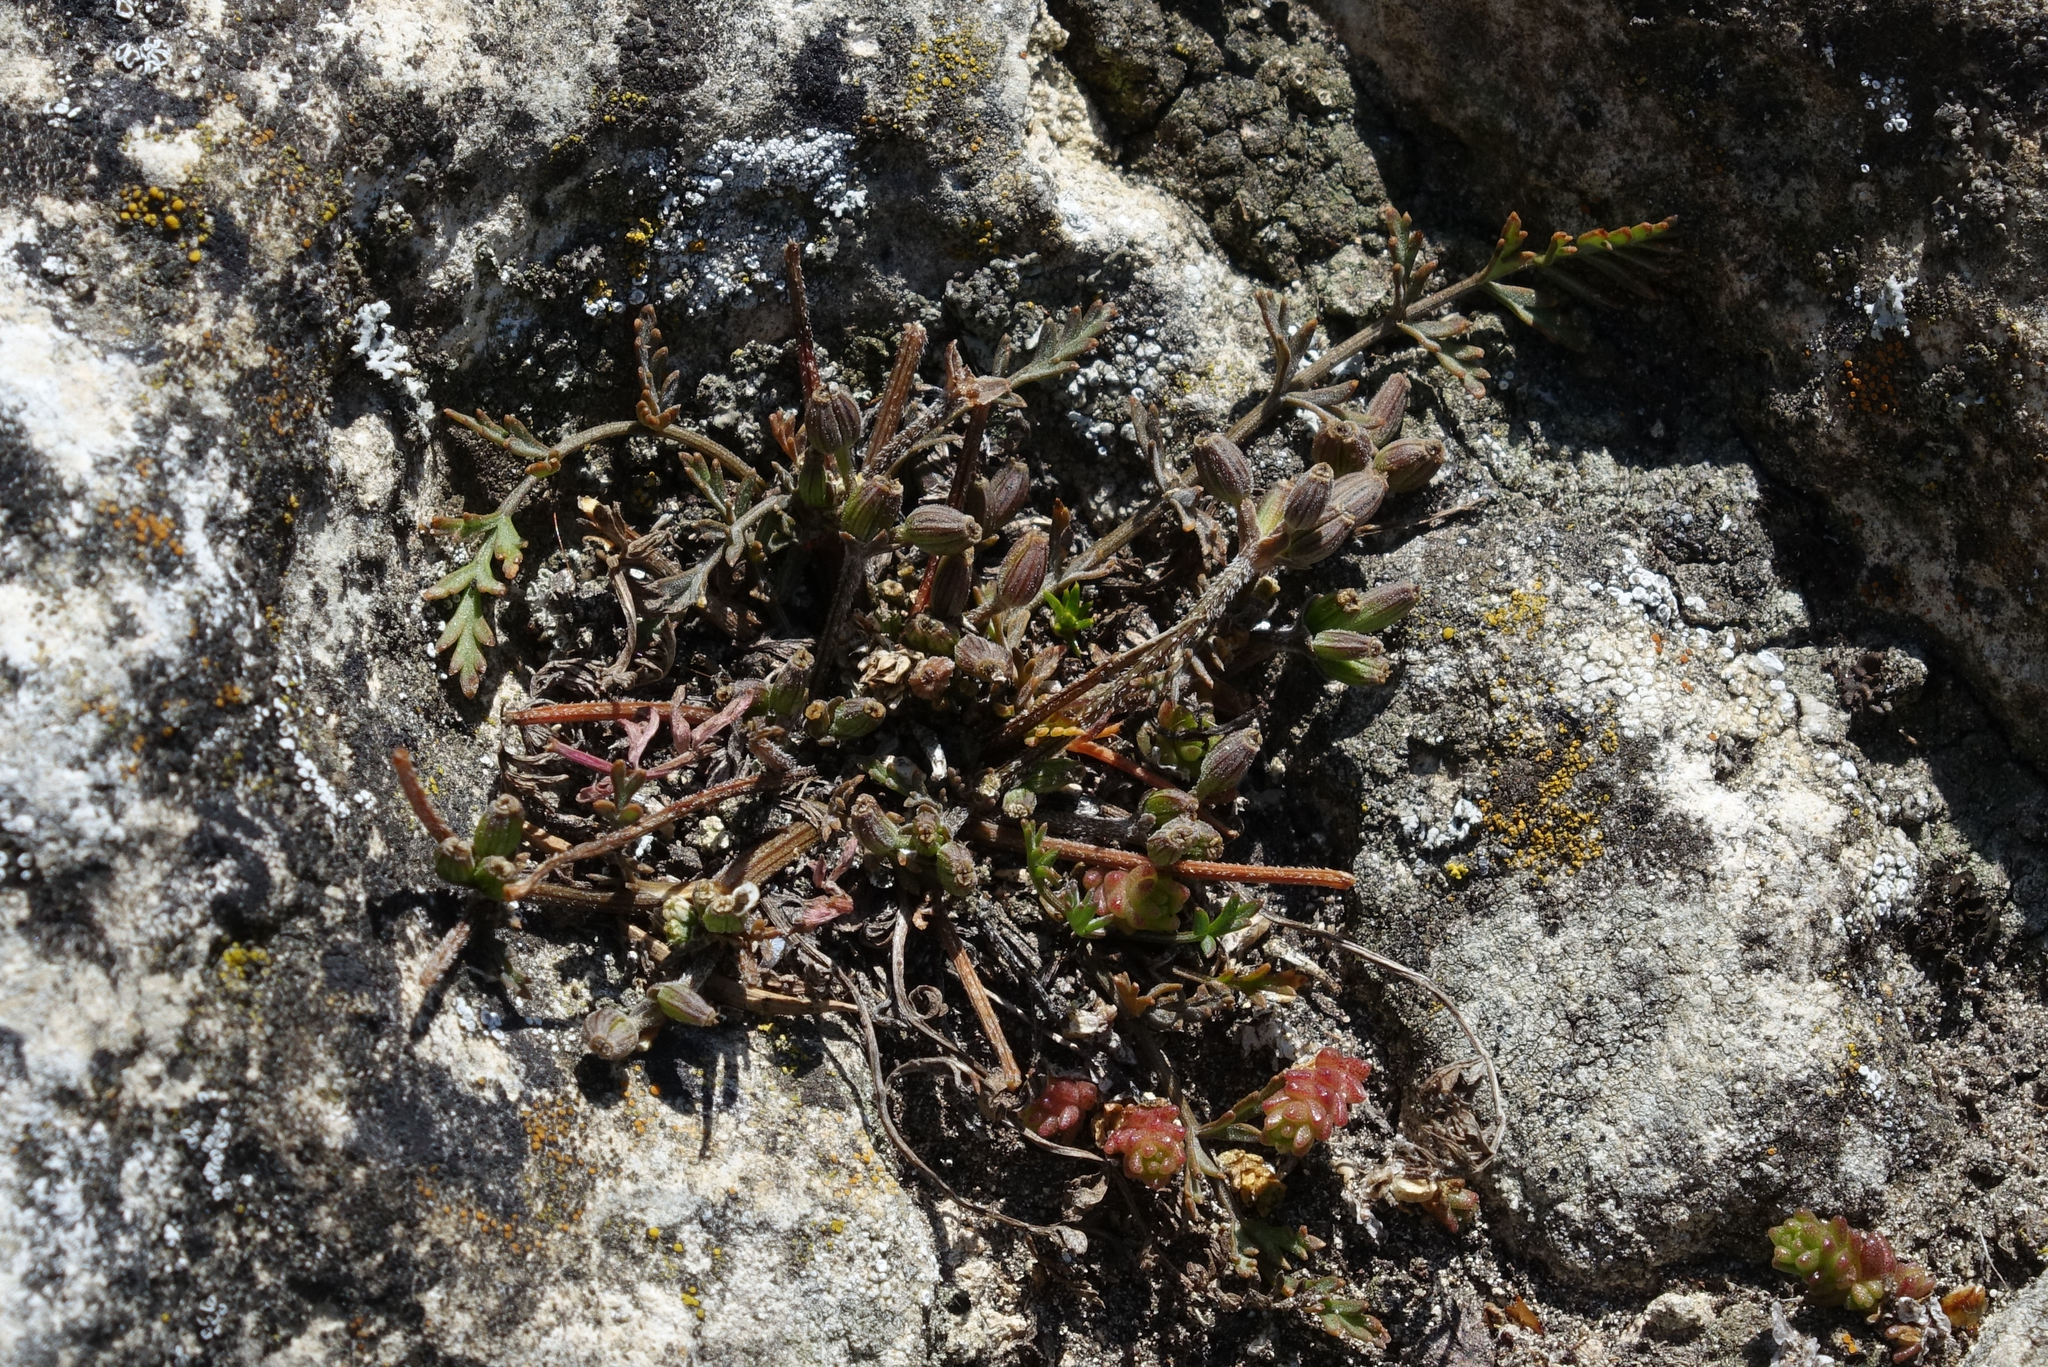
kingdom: Plantae
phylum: Tracheophyta
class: Magnoliopsida
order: Apiales
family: Apiaceae
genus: Chaerophyllum
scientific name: Chaerophyllum novae-zelandiae
